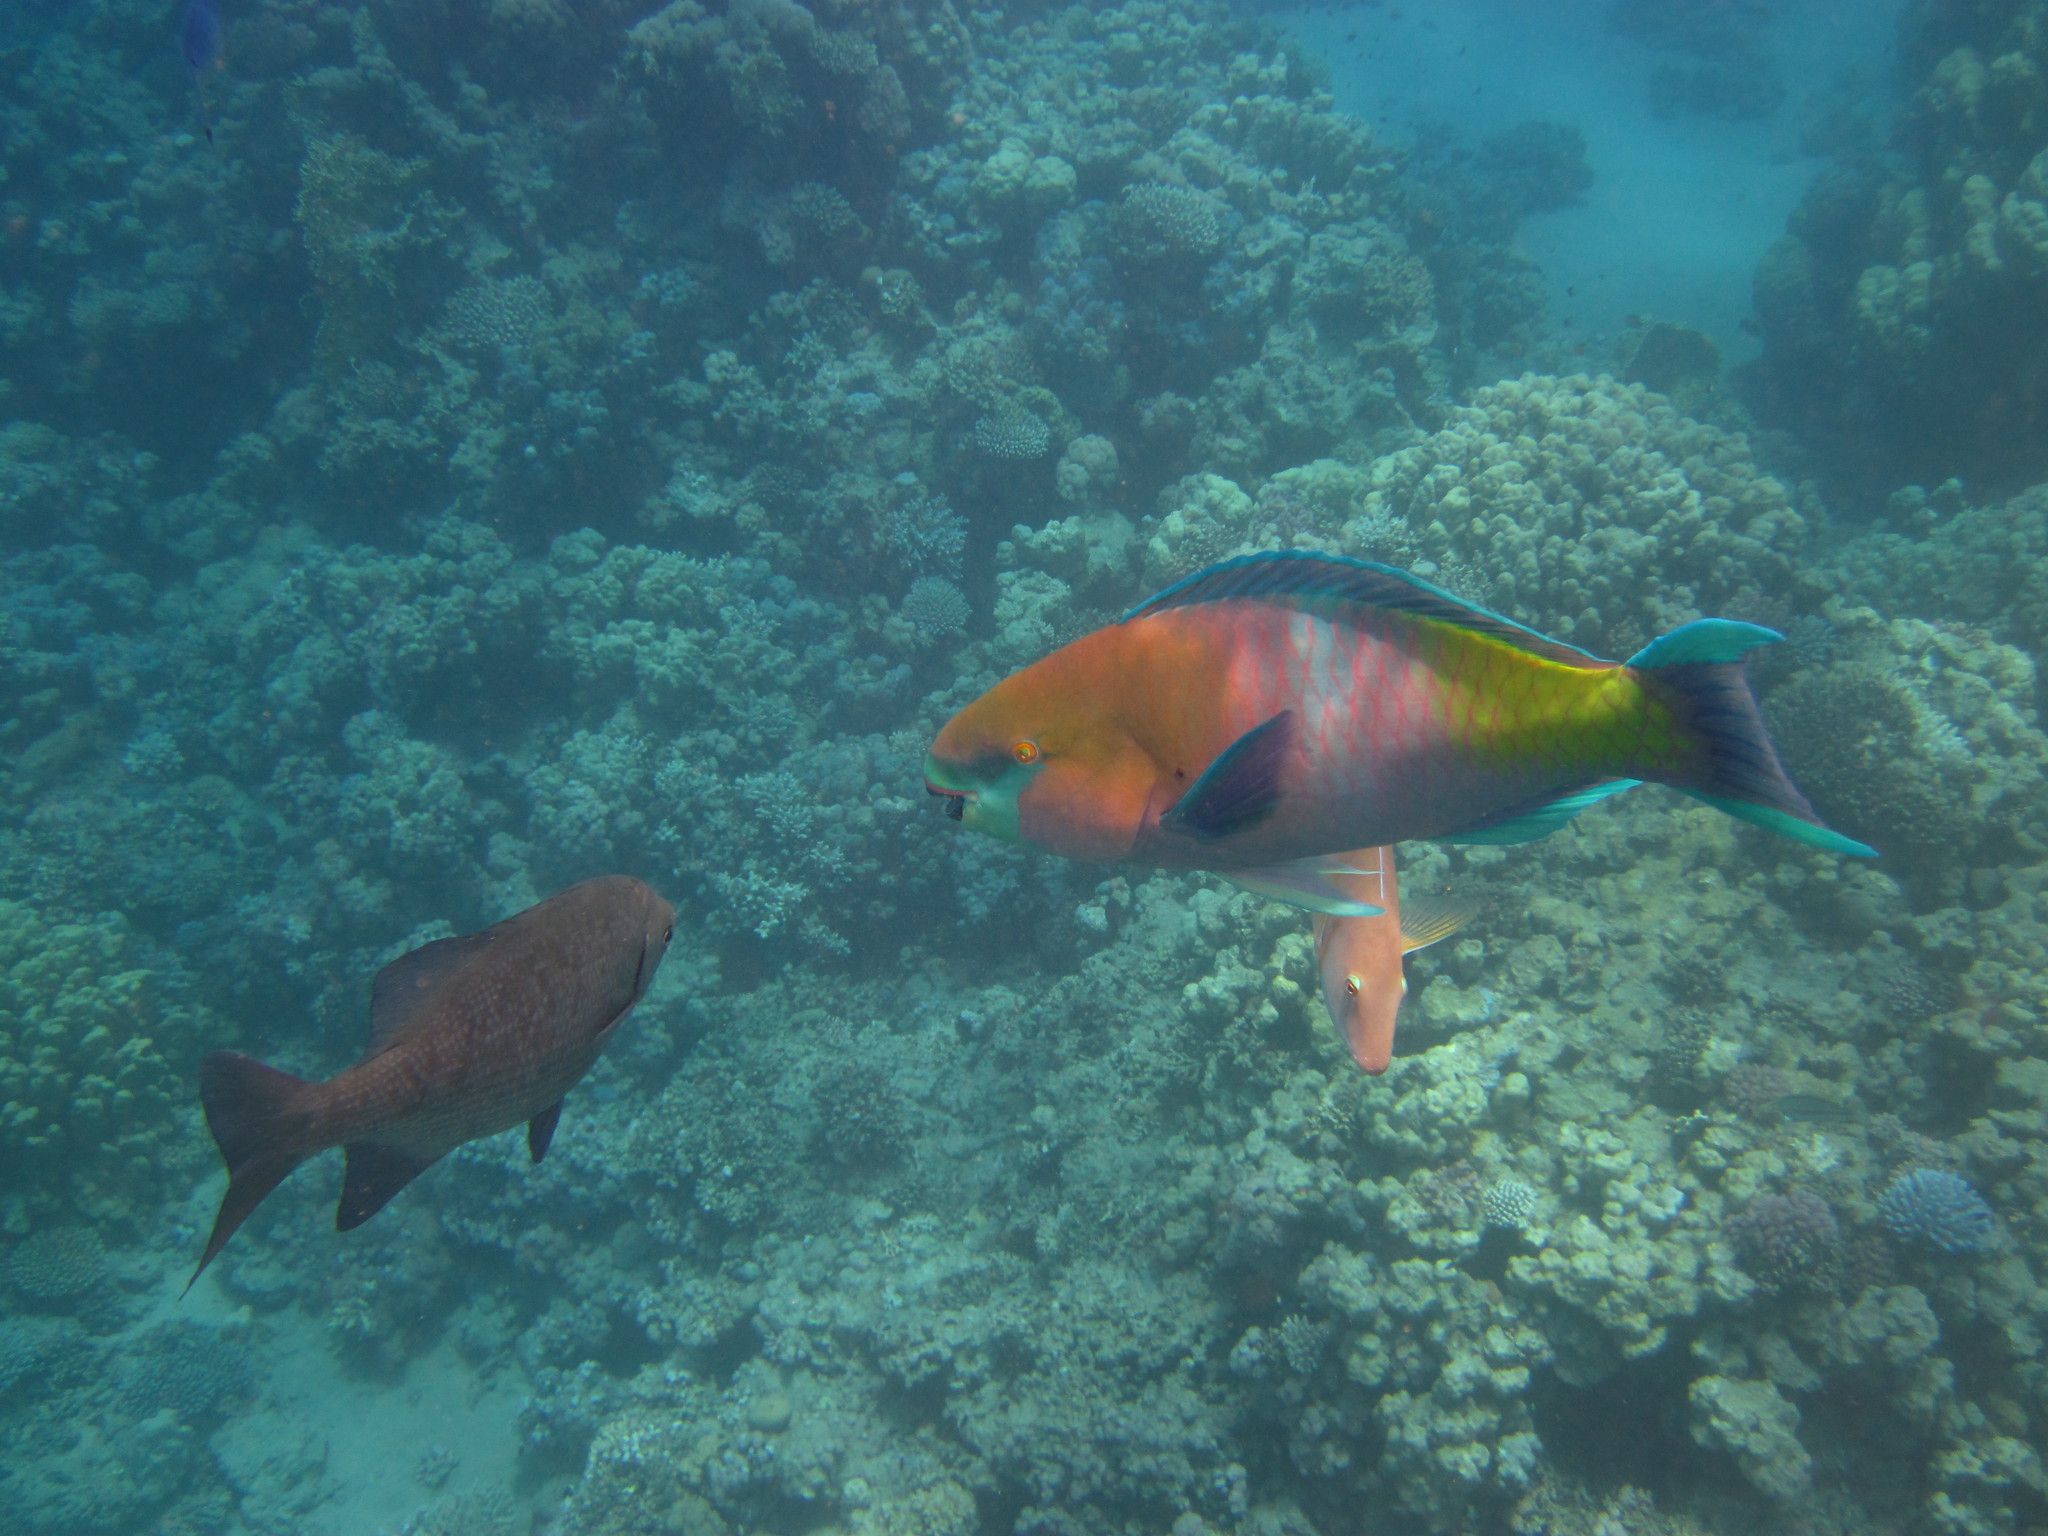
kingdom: Animalia
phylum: Chordata
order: Perciformes
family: Scaridae
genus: Scarus
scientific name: Scarus ferrugineus
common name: Rusty parrotfish
